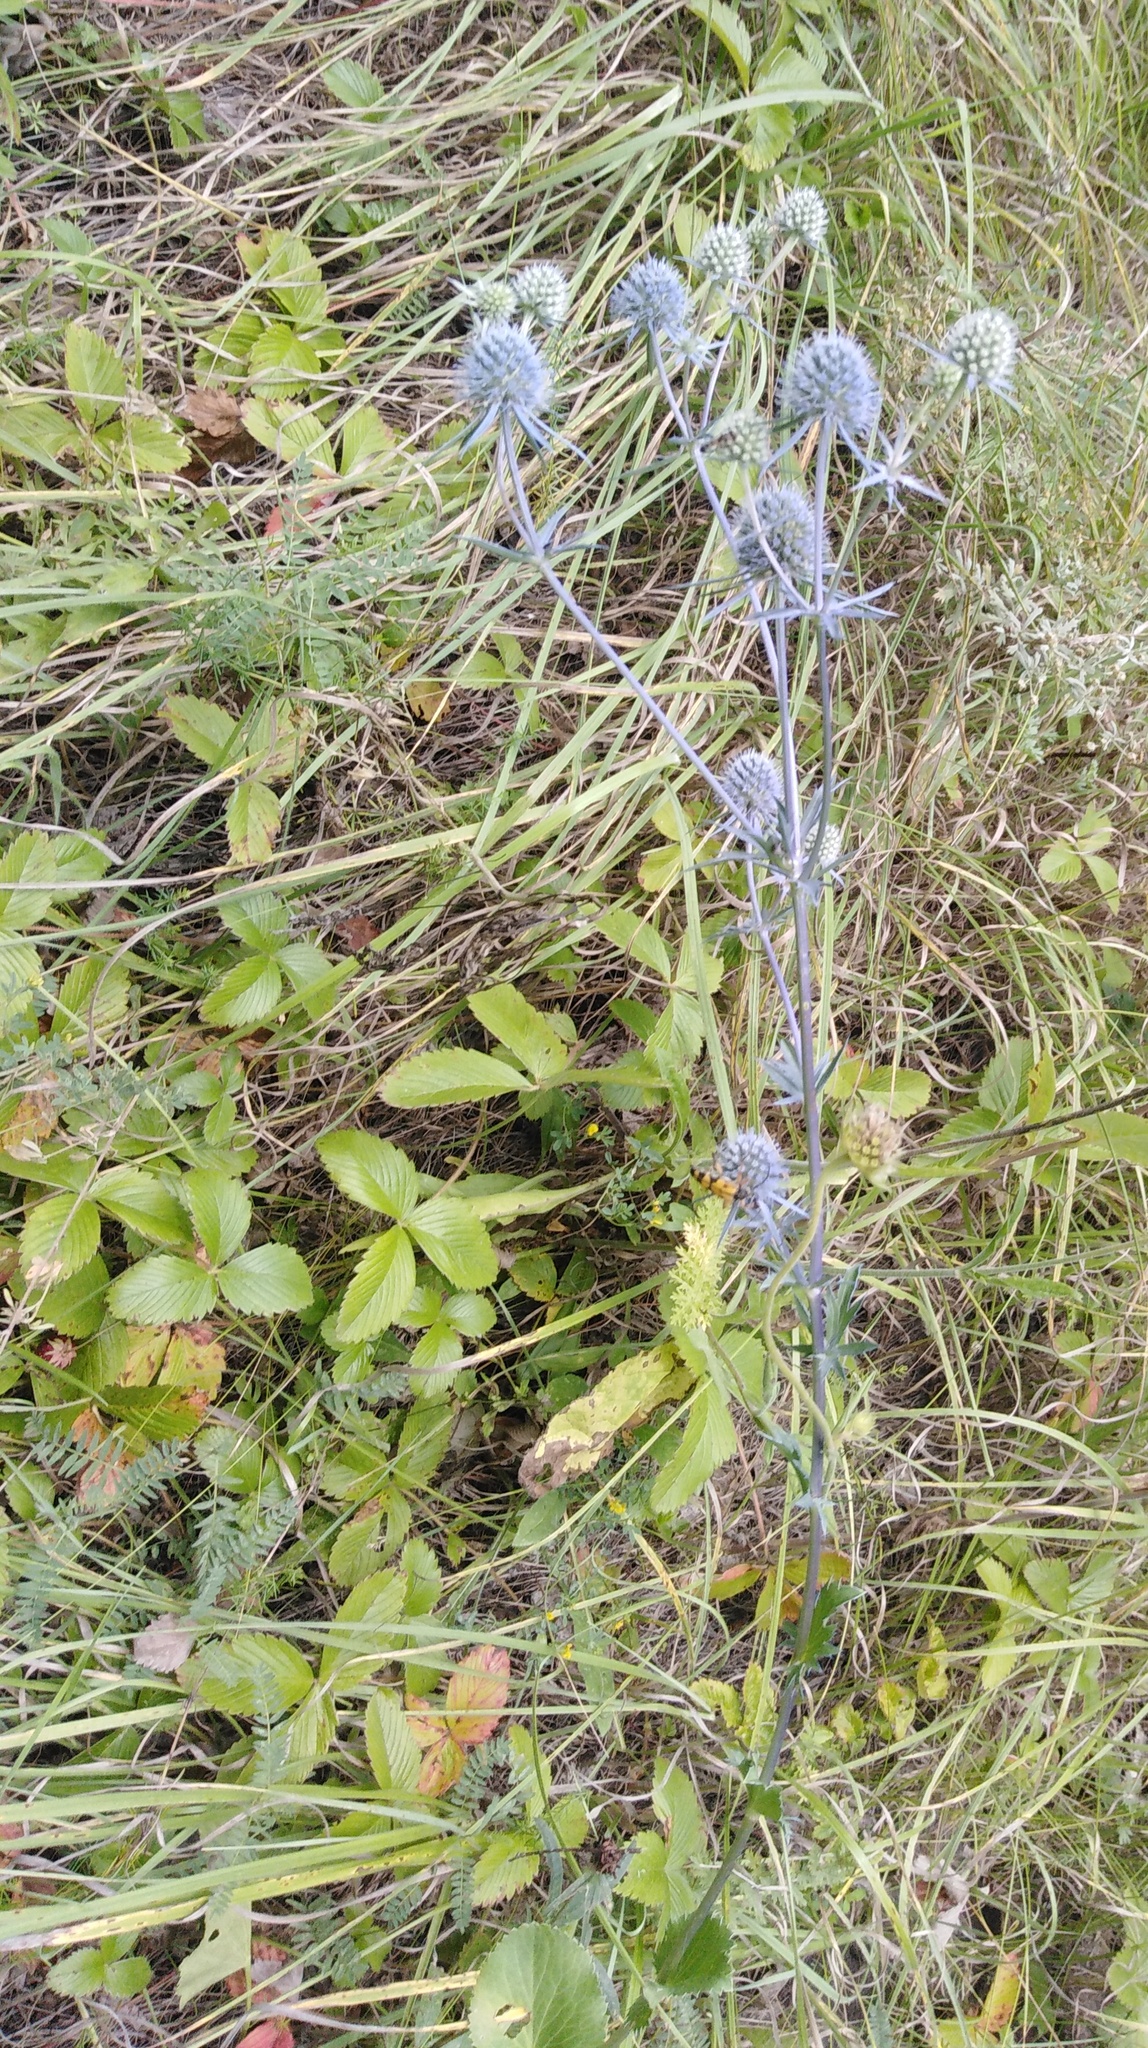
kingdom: Plantae
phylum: Tracheophyta
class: Magnoliopsida
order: Apiales
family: Apiaceae
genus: Eryngium
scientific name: Eryngium planum
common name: Blue eryngo
